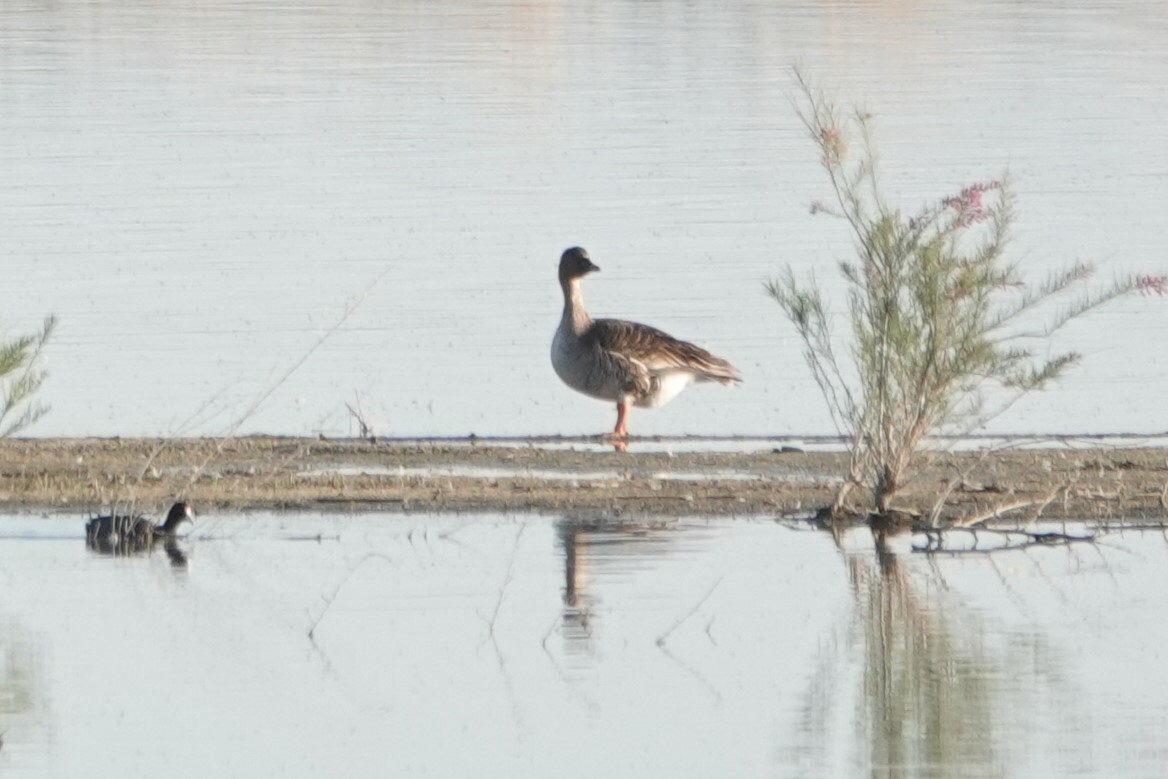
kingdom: Animalia
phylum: Chordata
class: Aves
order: Anseriformes
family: Anatidae
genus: Anser
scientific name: Anser serrirostris
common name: Tundra bean goose
